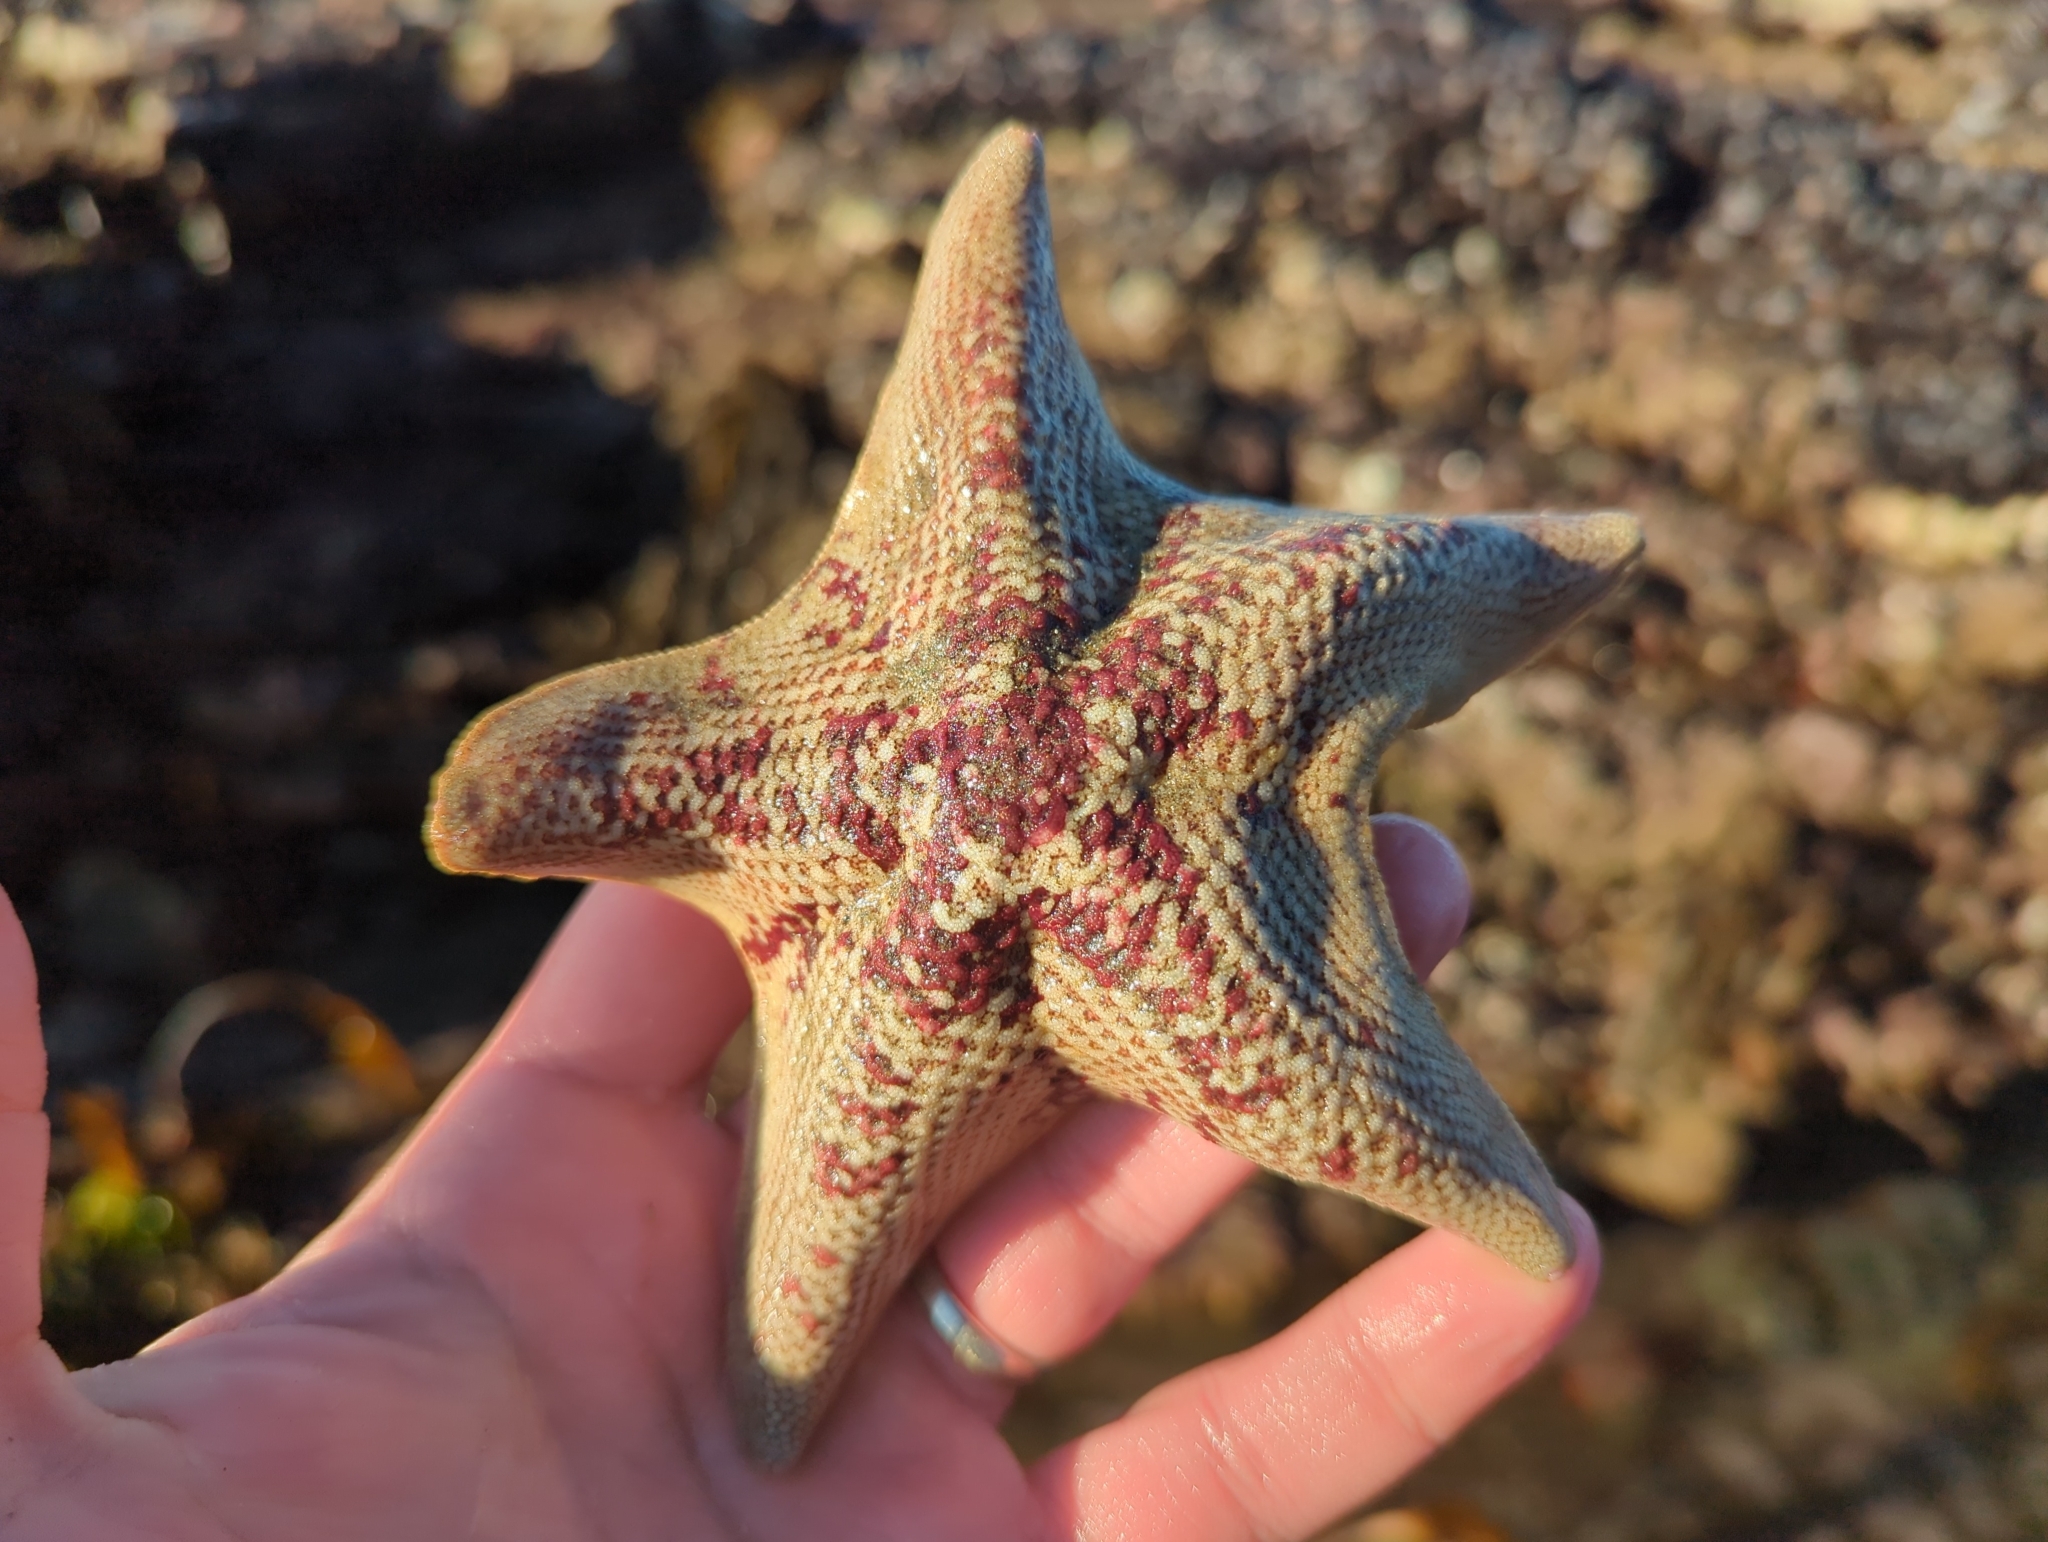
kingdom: Animalia
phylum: Echinodermata
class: Asteroidea
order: Valvatida
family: Asterinidae
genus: Patiria
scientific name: Patiria miniata
